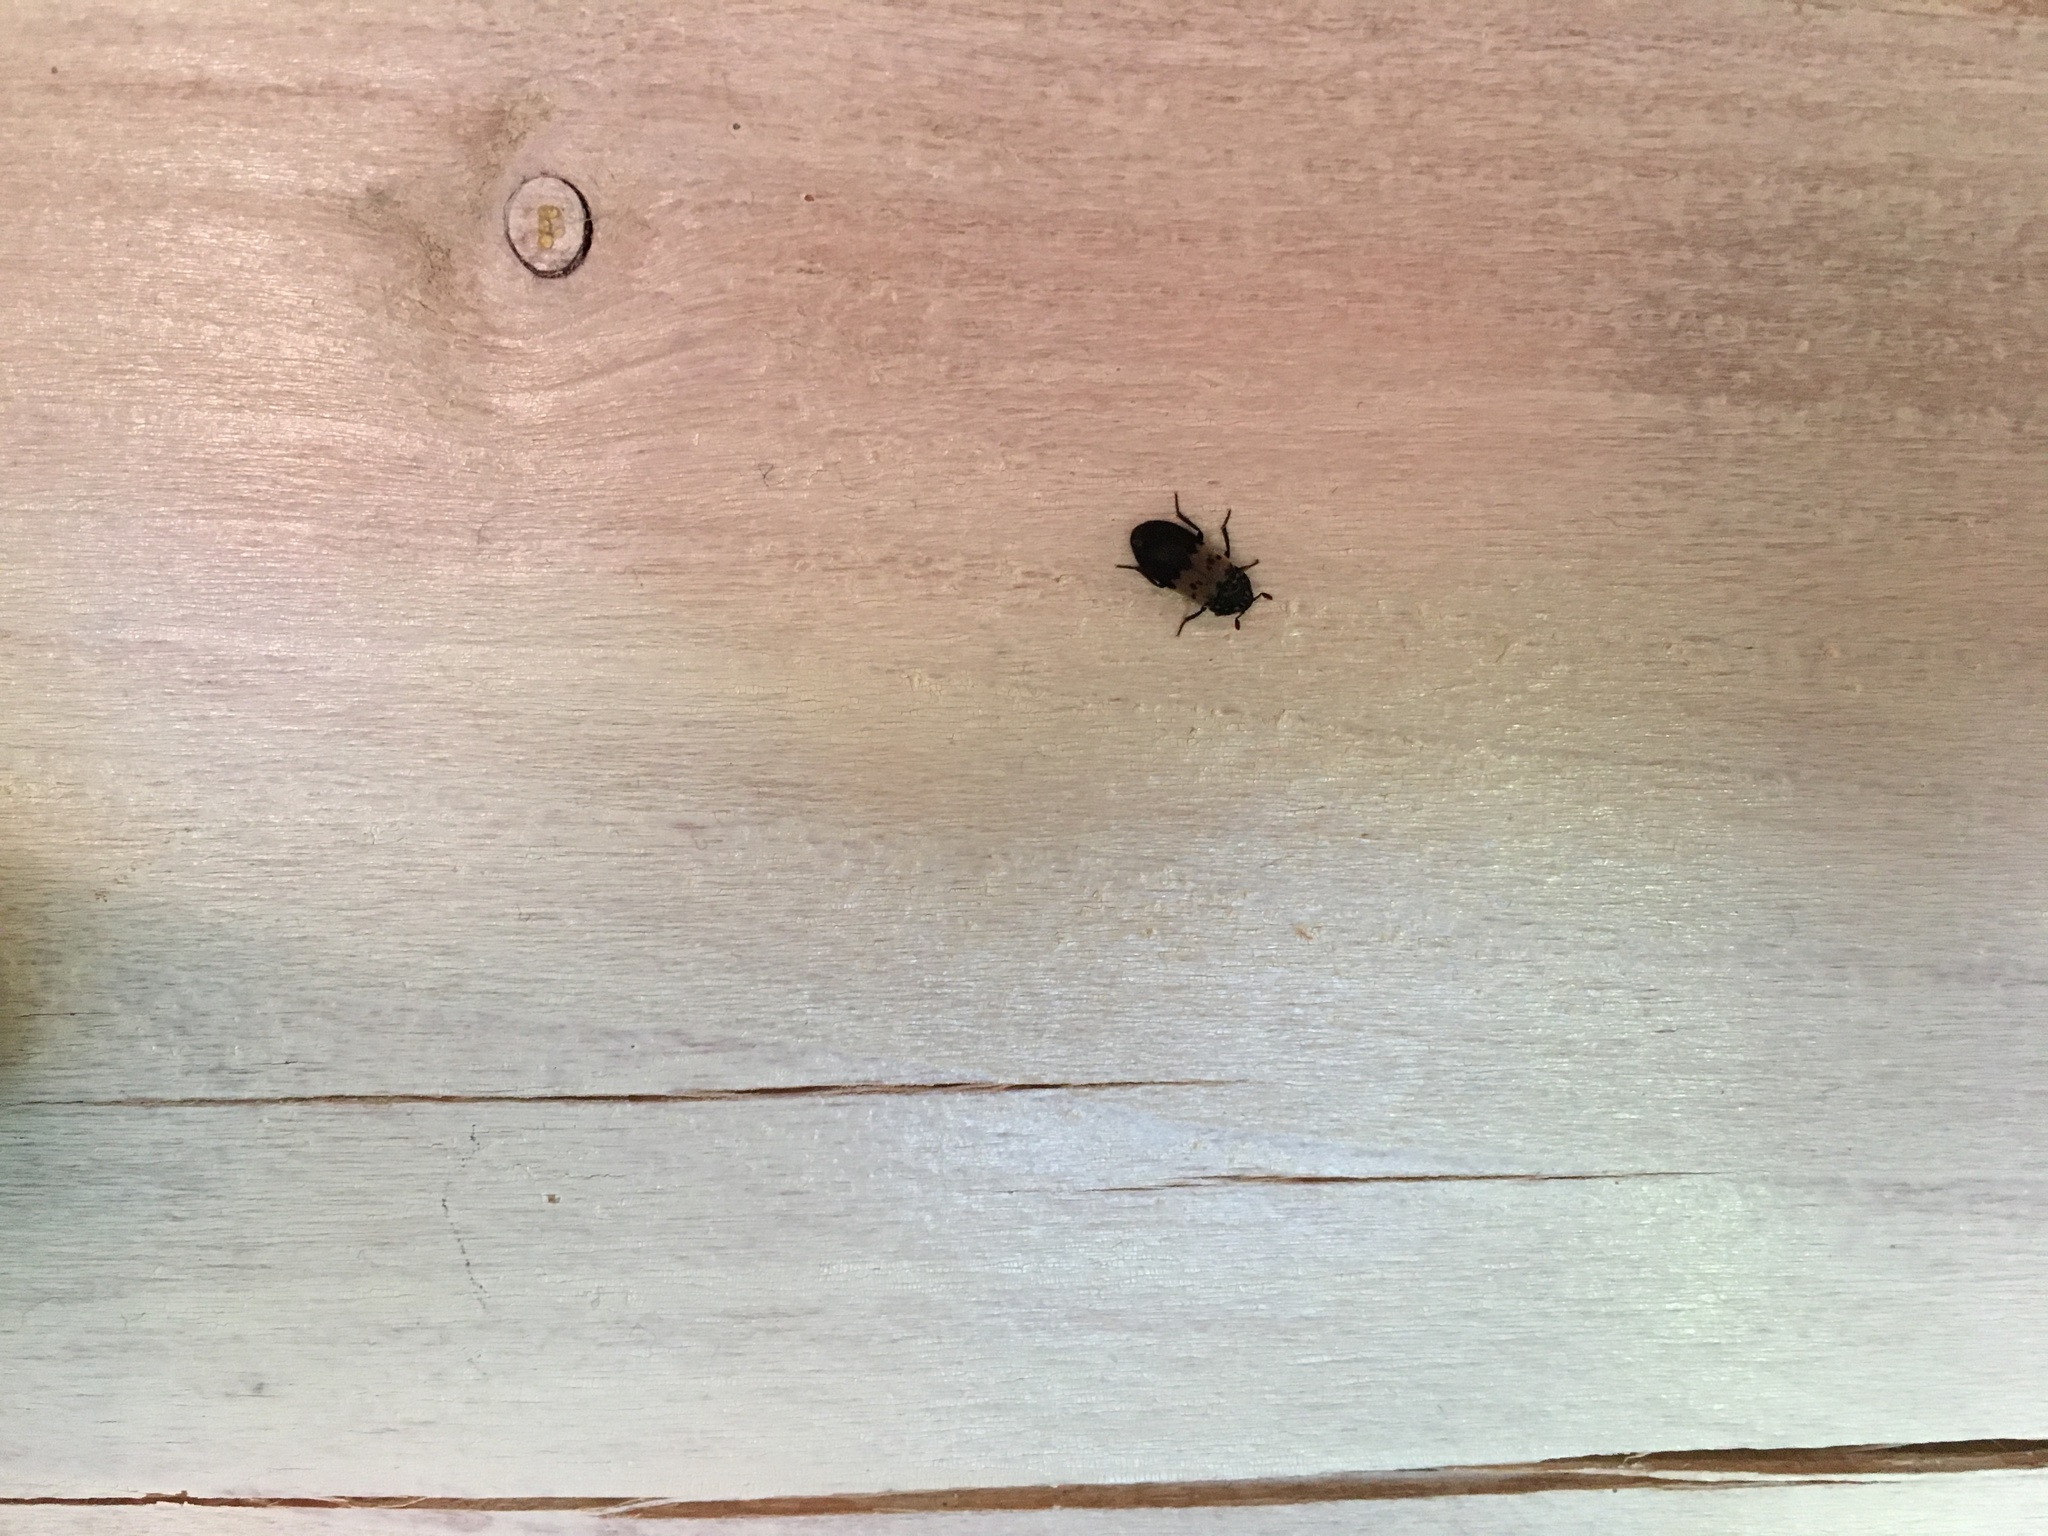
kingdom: Animalia
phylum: Arthropoda
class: Insecta
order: Coleoptera
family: Dermestidae
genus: Dermestes
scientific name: Dermestes lardarius
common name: Larder beetle
